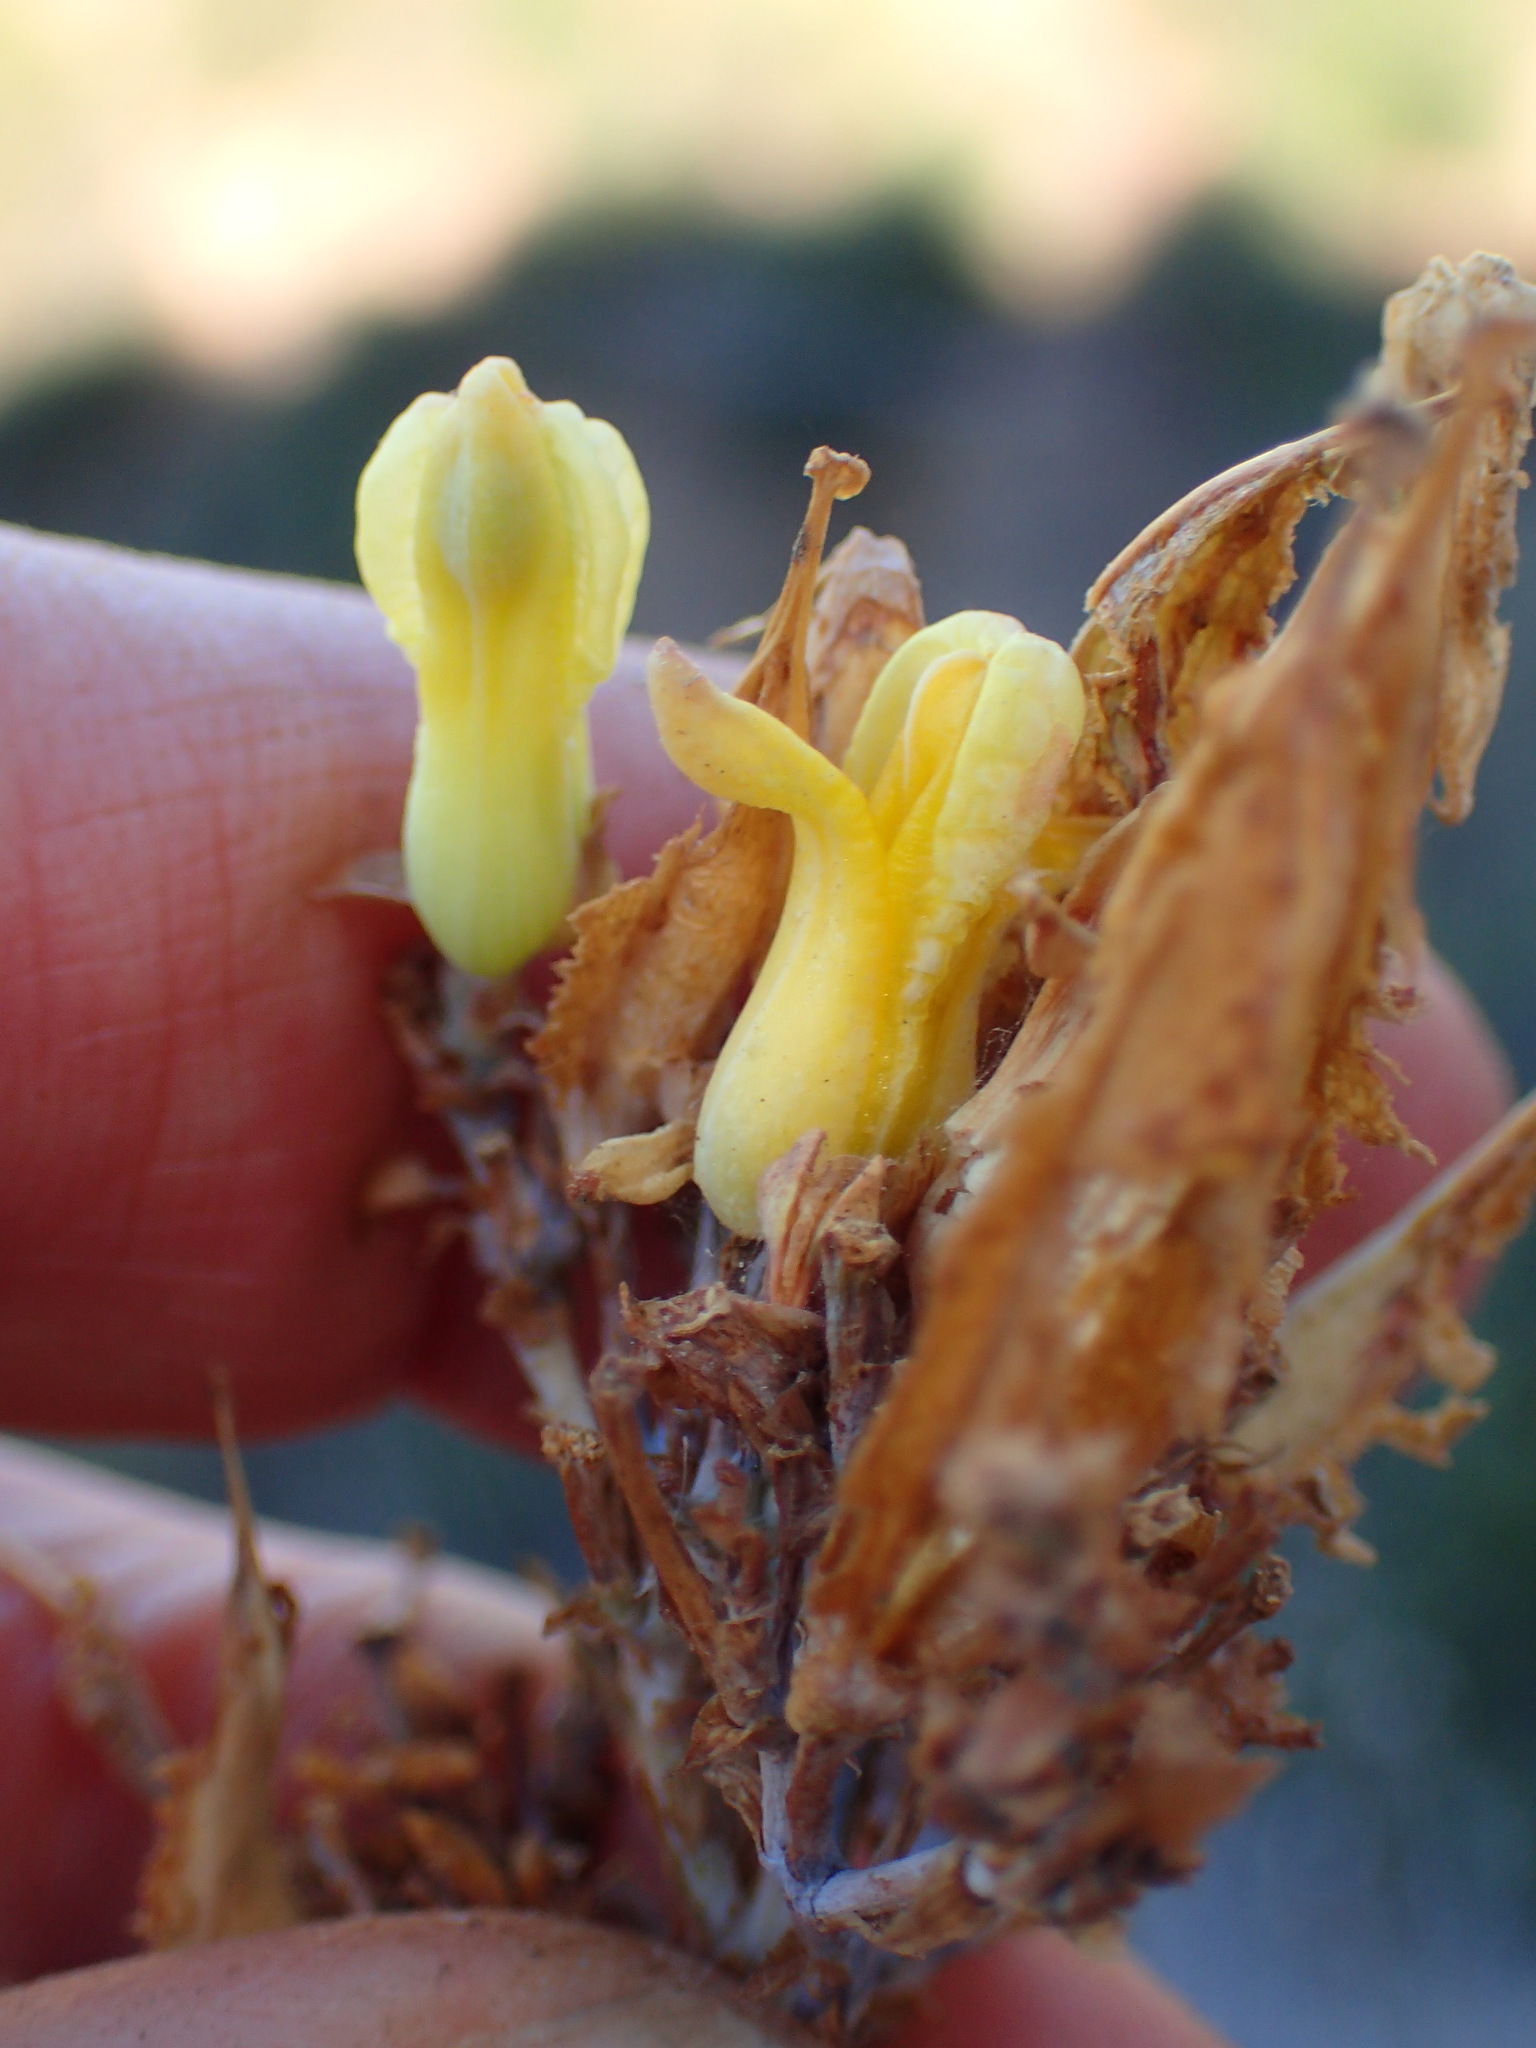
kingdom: Plantae
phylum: Tracheophyta
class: Magnoliopsida
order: Ranunculales
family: Papaveraceae
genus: Ehrendorferia
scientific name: Ehrendorferia chrysantha
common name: Golden eardrops
